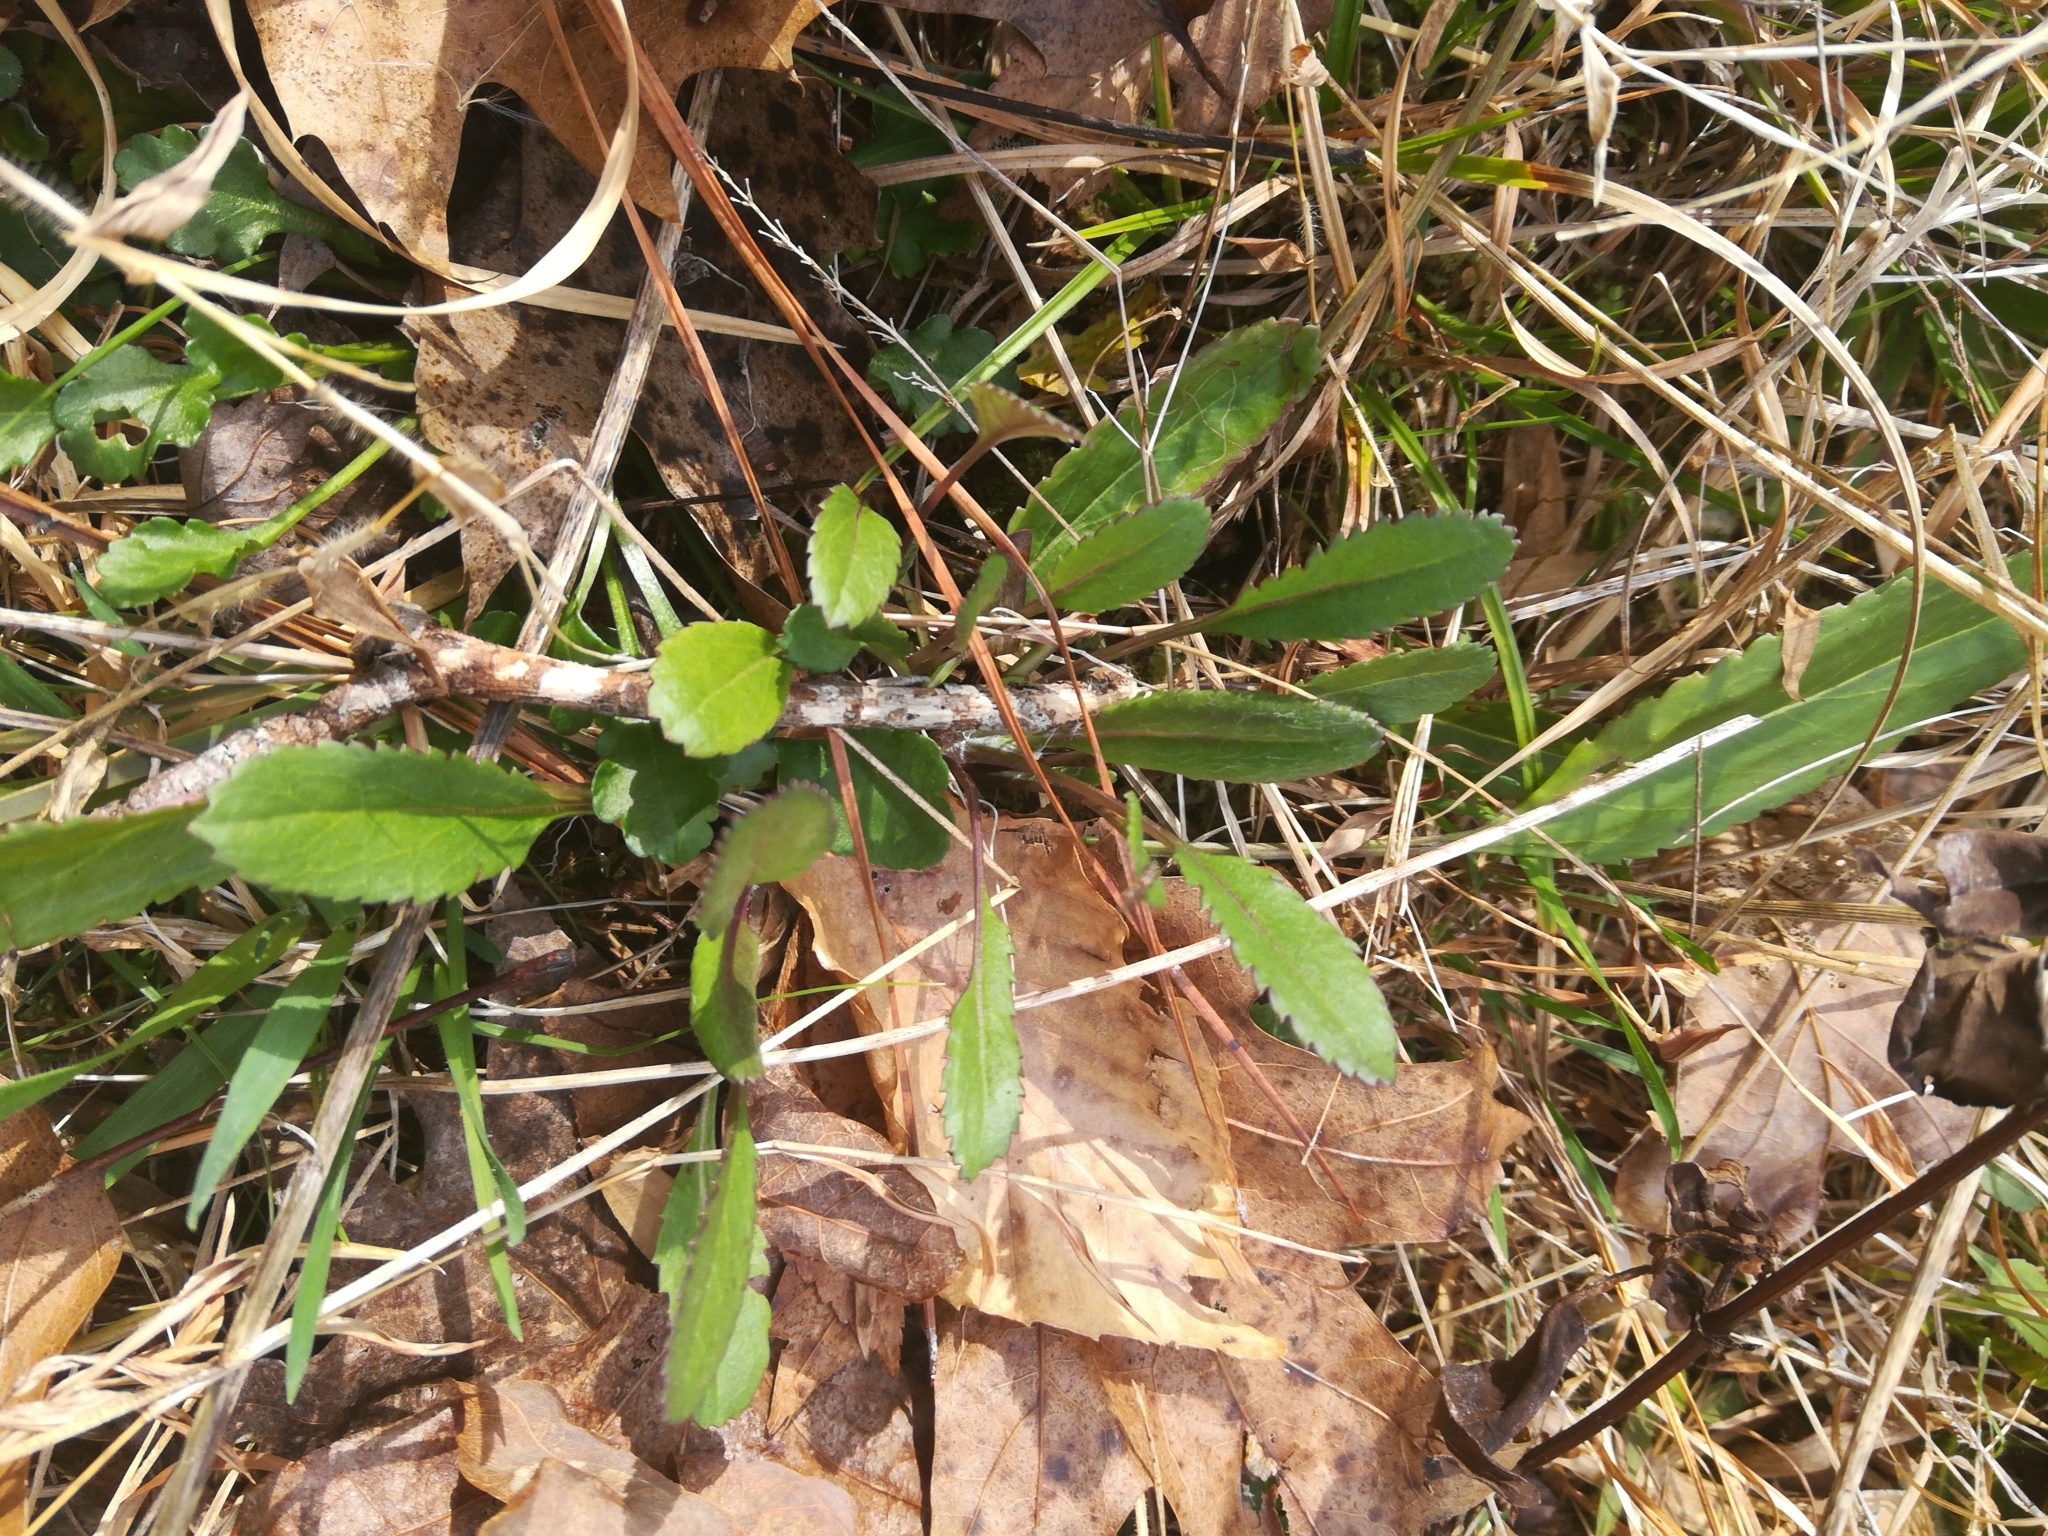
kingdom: Plantae
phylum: Tracheophyta
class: Magnoliopsida
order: Asterales
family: Asteraceae
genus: Packera
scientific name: Packera anonyma
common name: Small ragwort
